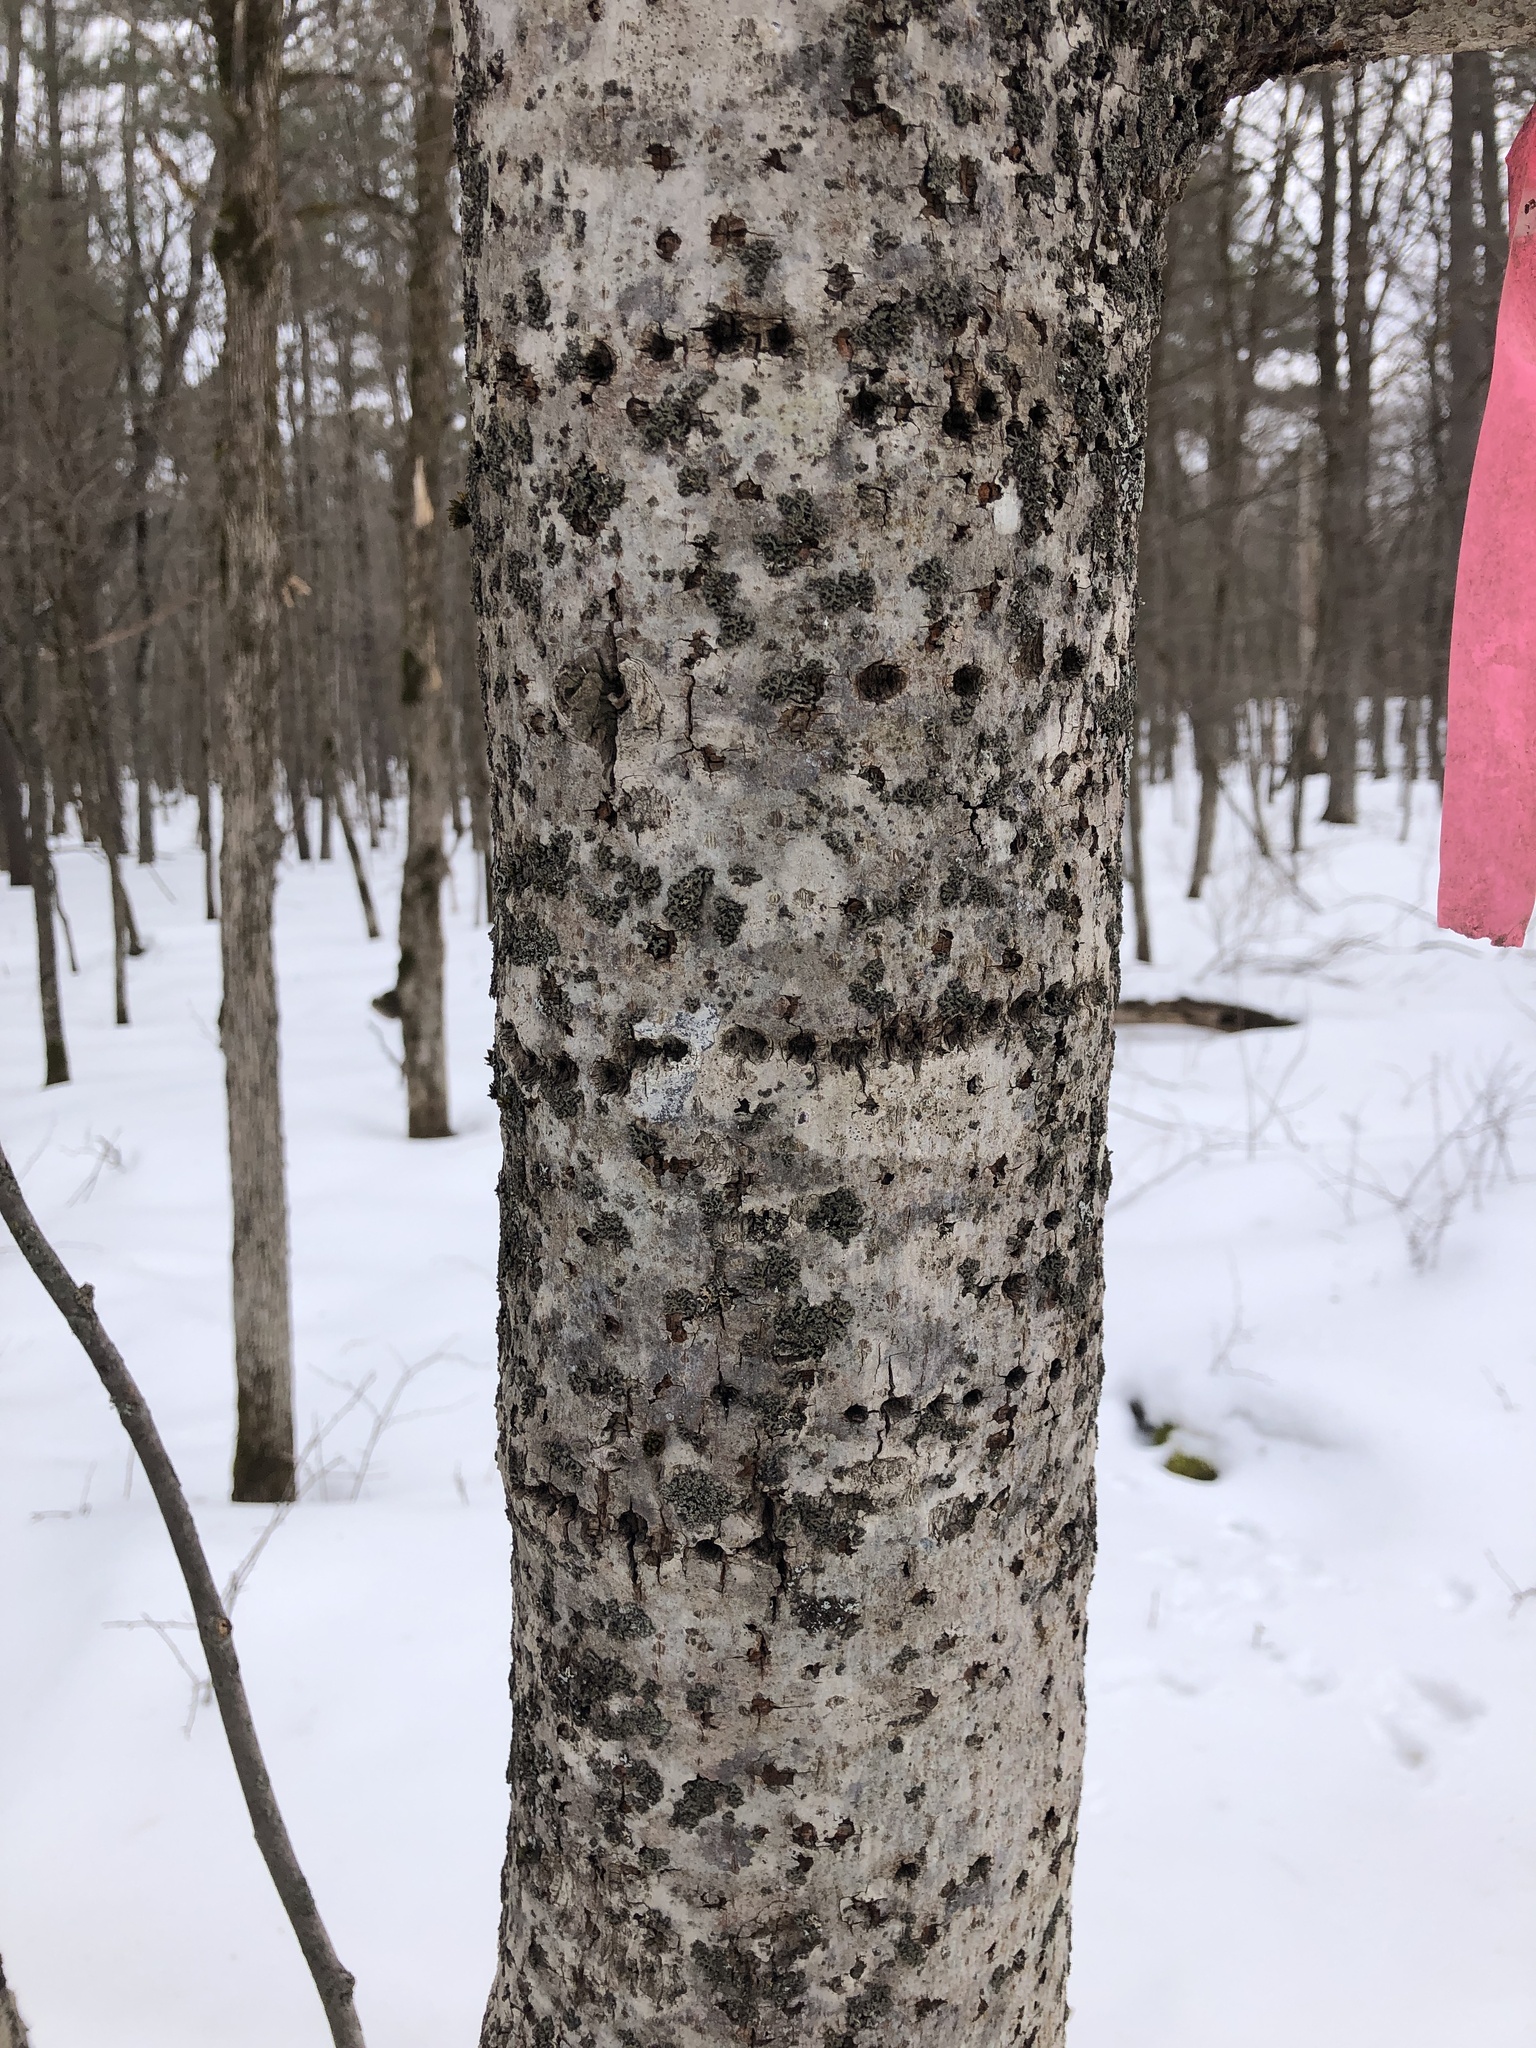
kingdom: Plantae
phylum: Tracheophyta
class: Magnoliopsida
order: Malvales
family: Malvaceae
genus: Tilia
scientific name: Tilia americana
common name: Basswood
